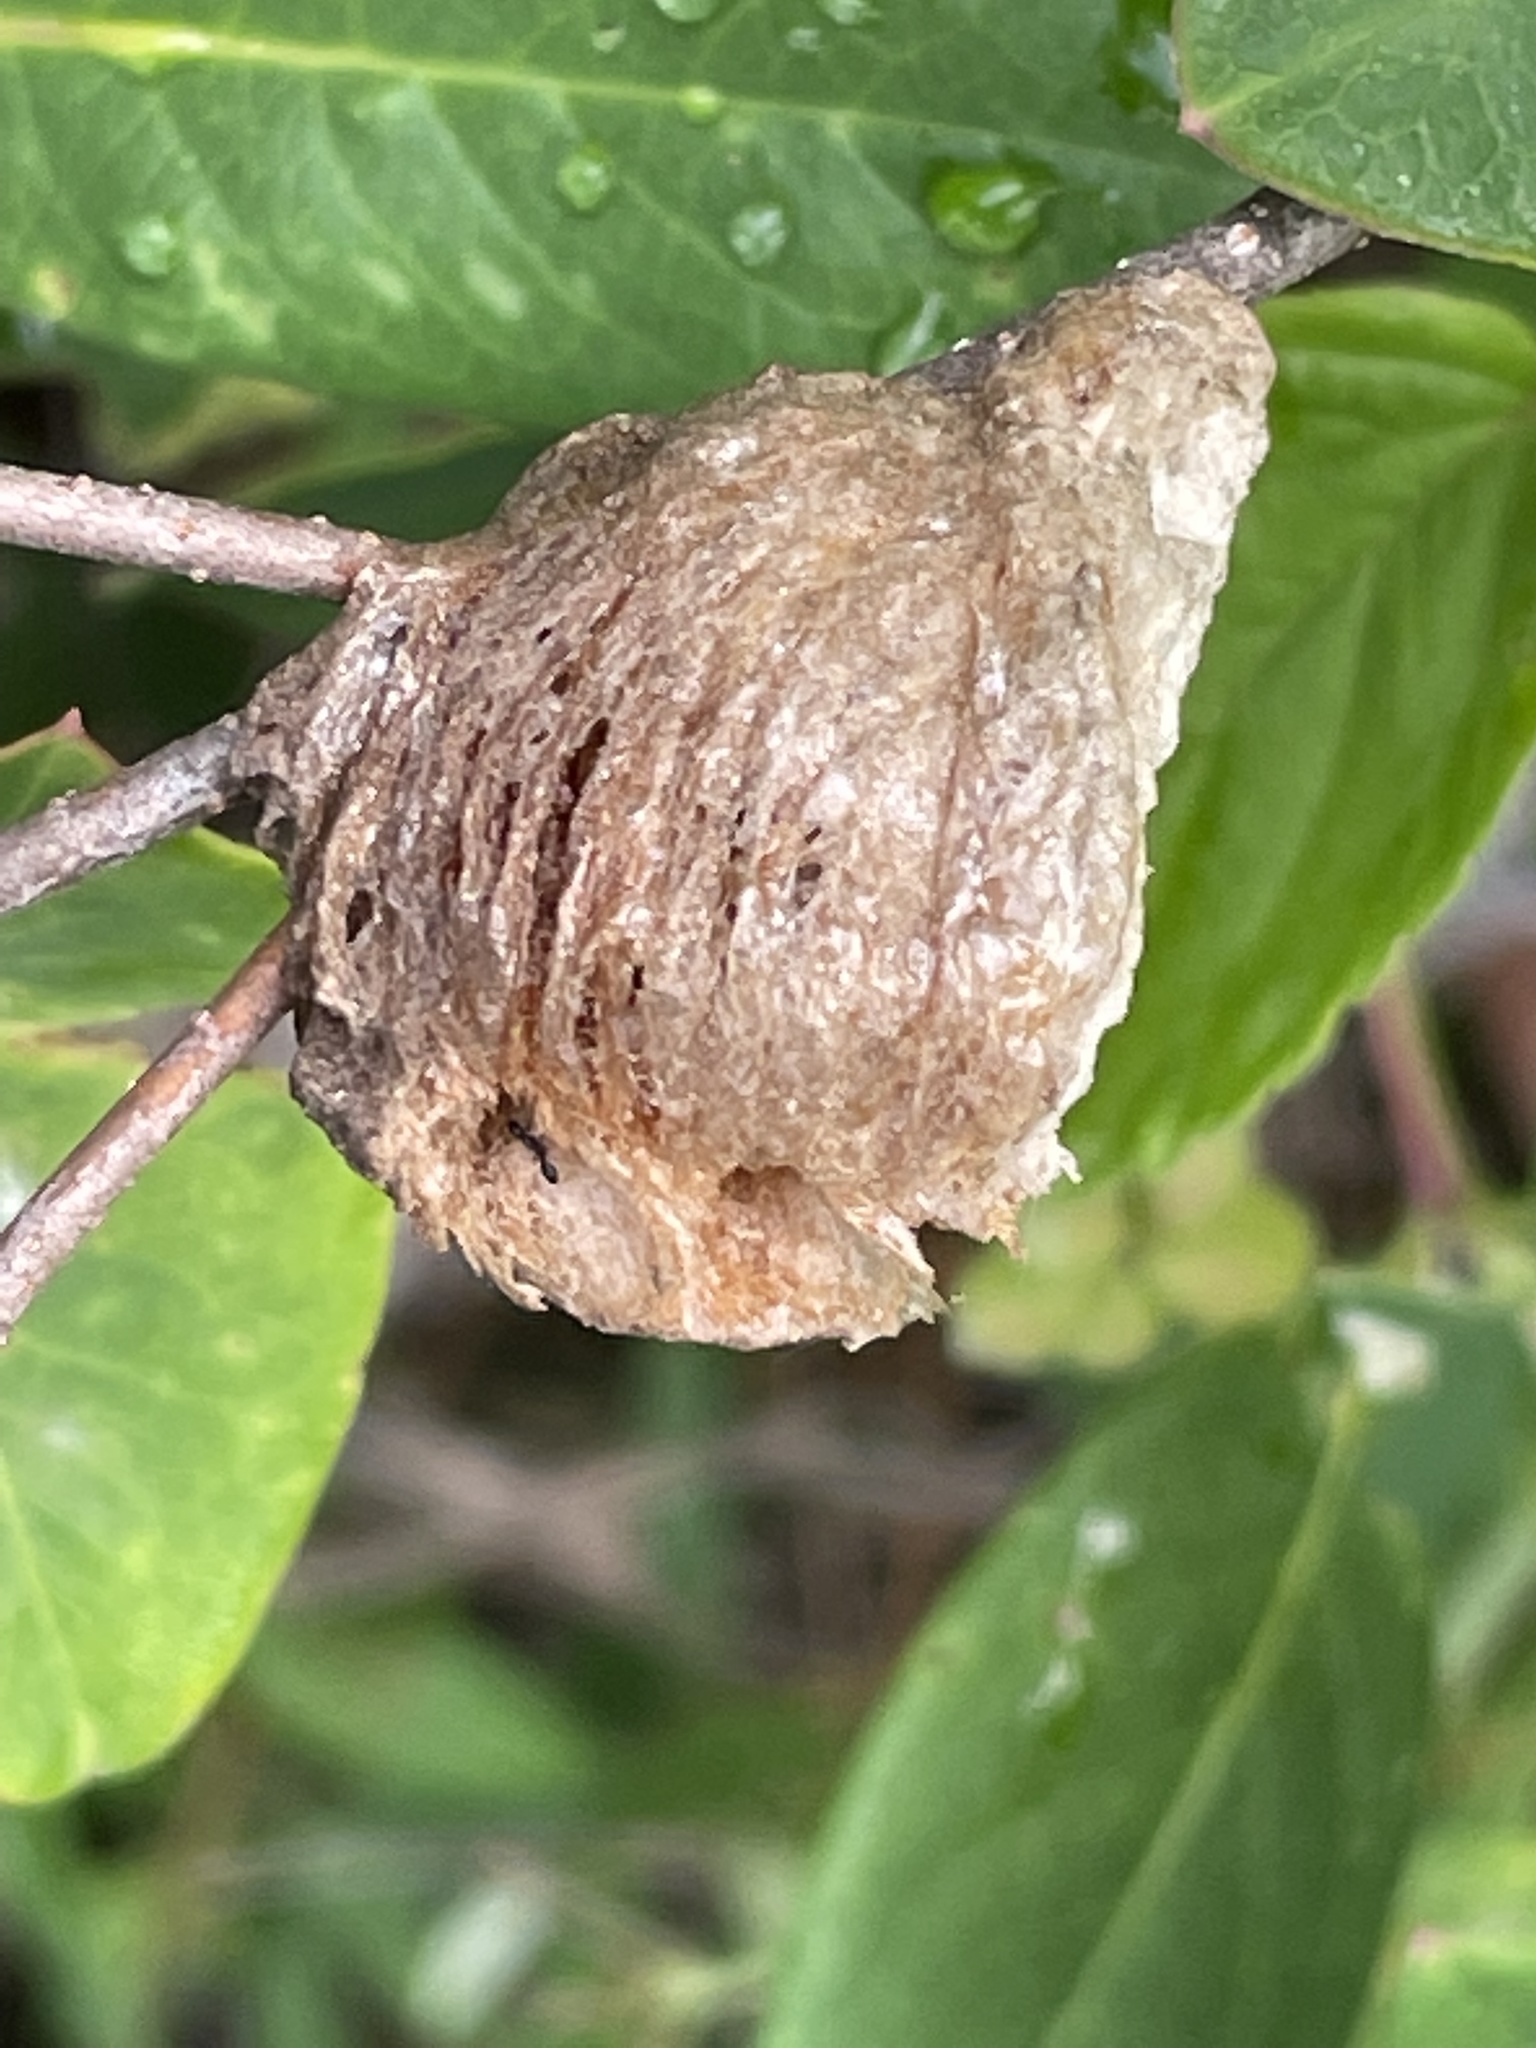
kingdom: Animalia
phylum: Arthropoda
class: Insecta
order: Mantodea
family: Mantidae
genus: Tenodera
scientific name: Tenodera sinensis
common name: Chinese mantis
